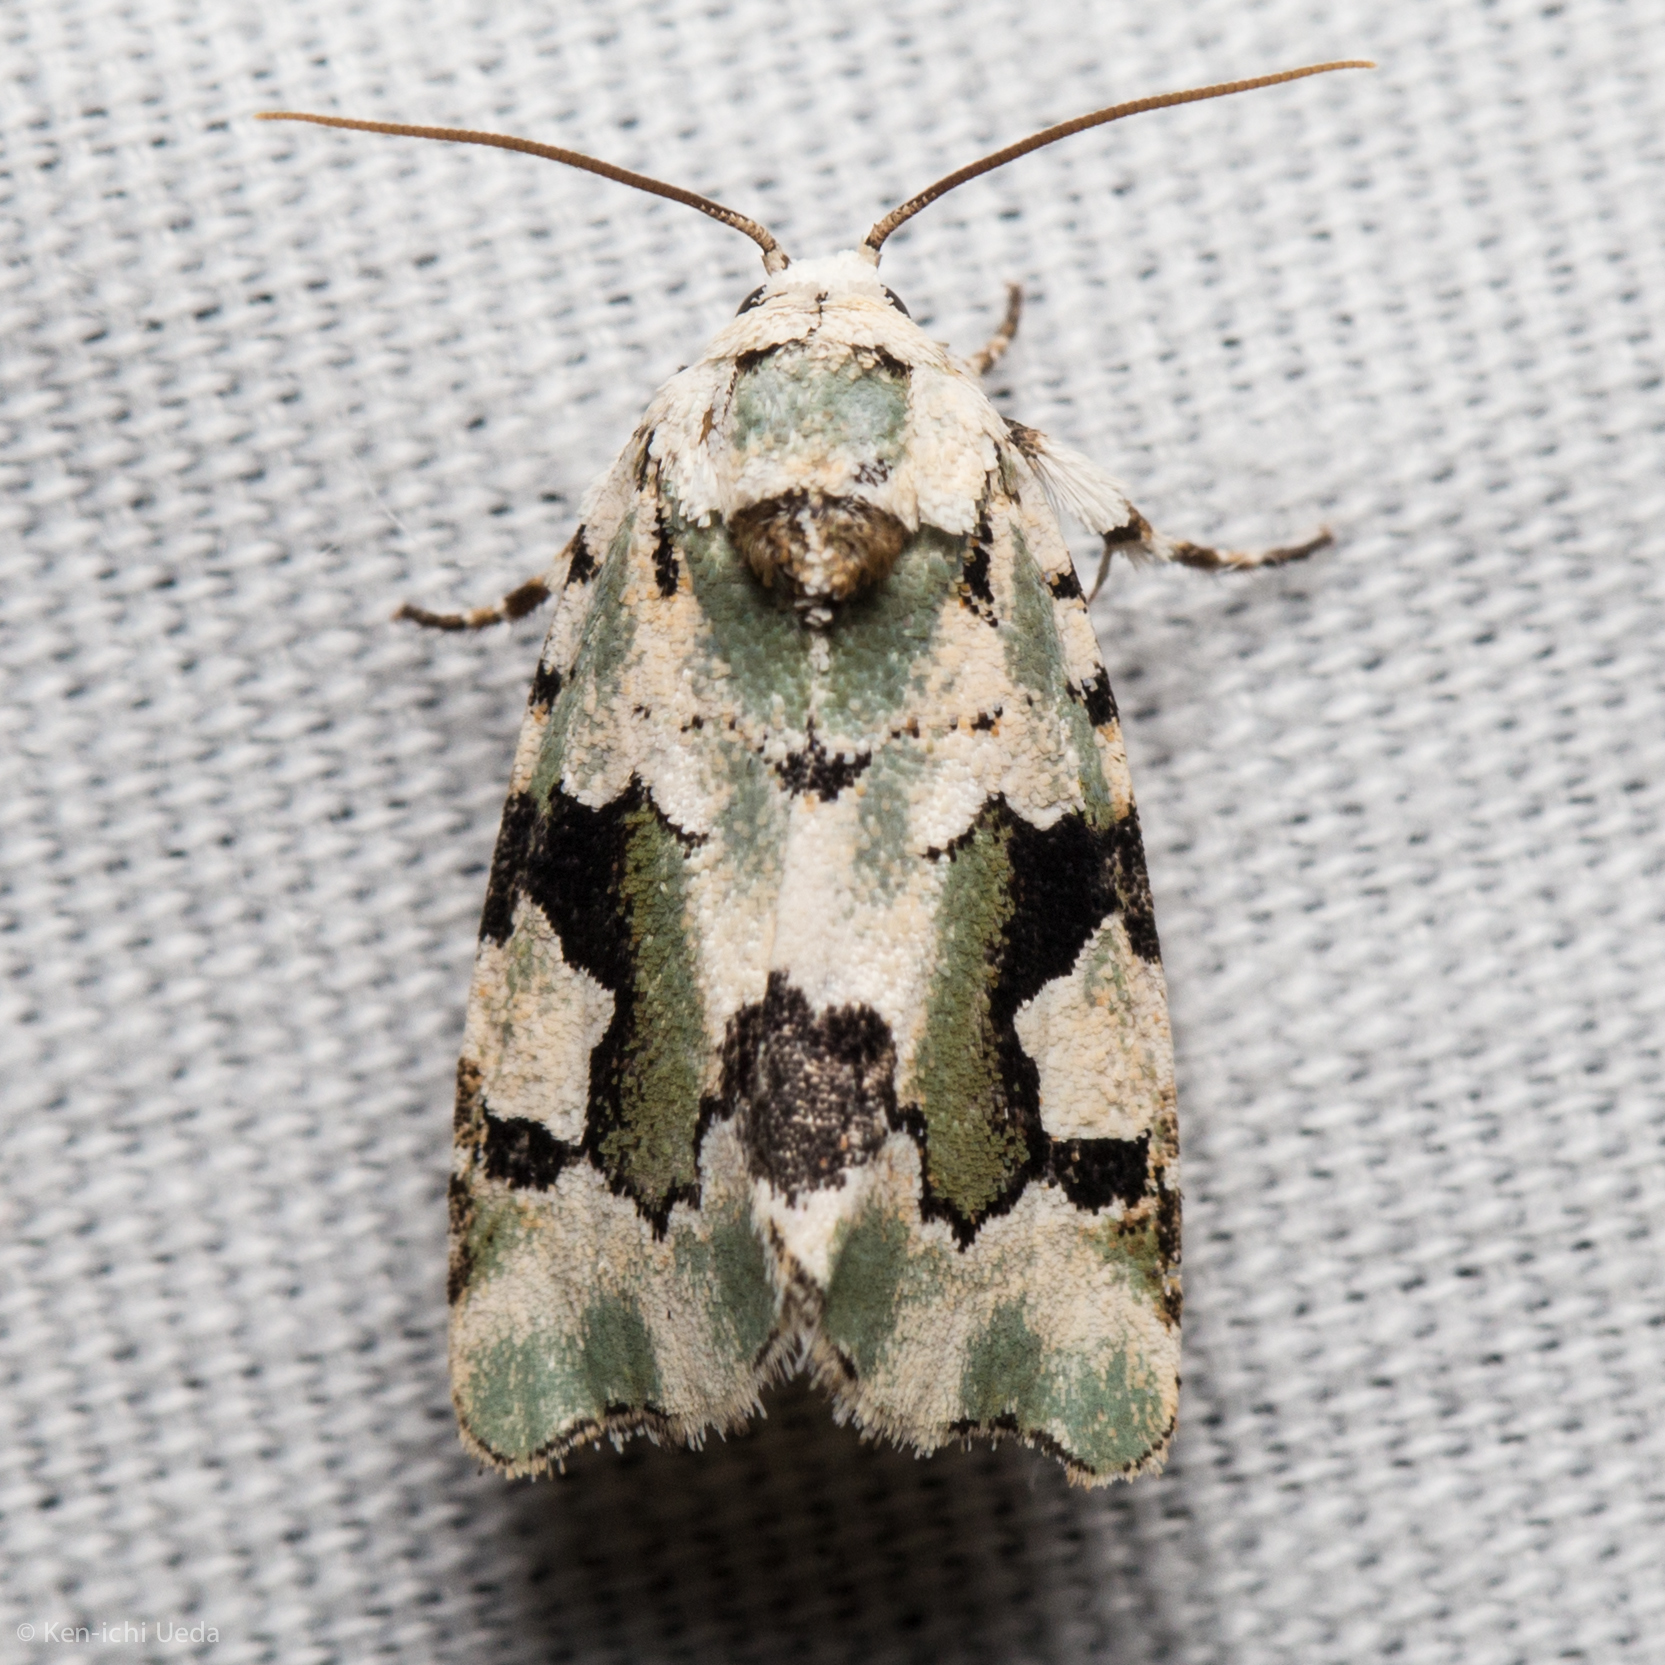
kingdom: Animalia
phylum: Arthropoda
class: Insecta
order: Lepidoptera
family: Noctuidae
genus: Emarginea
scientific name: Emarginea percara
